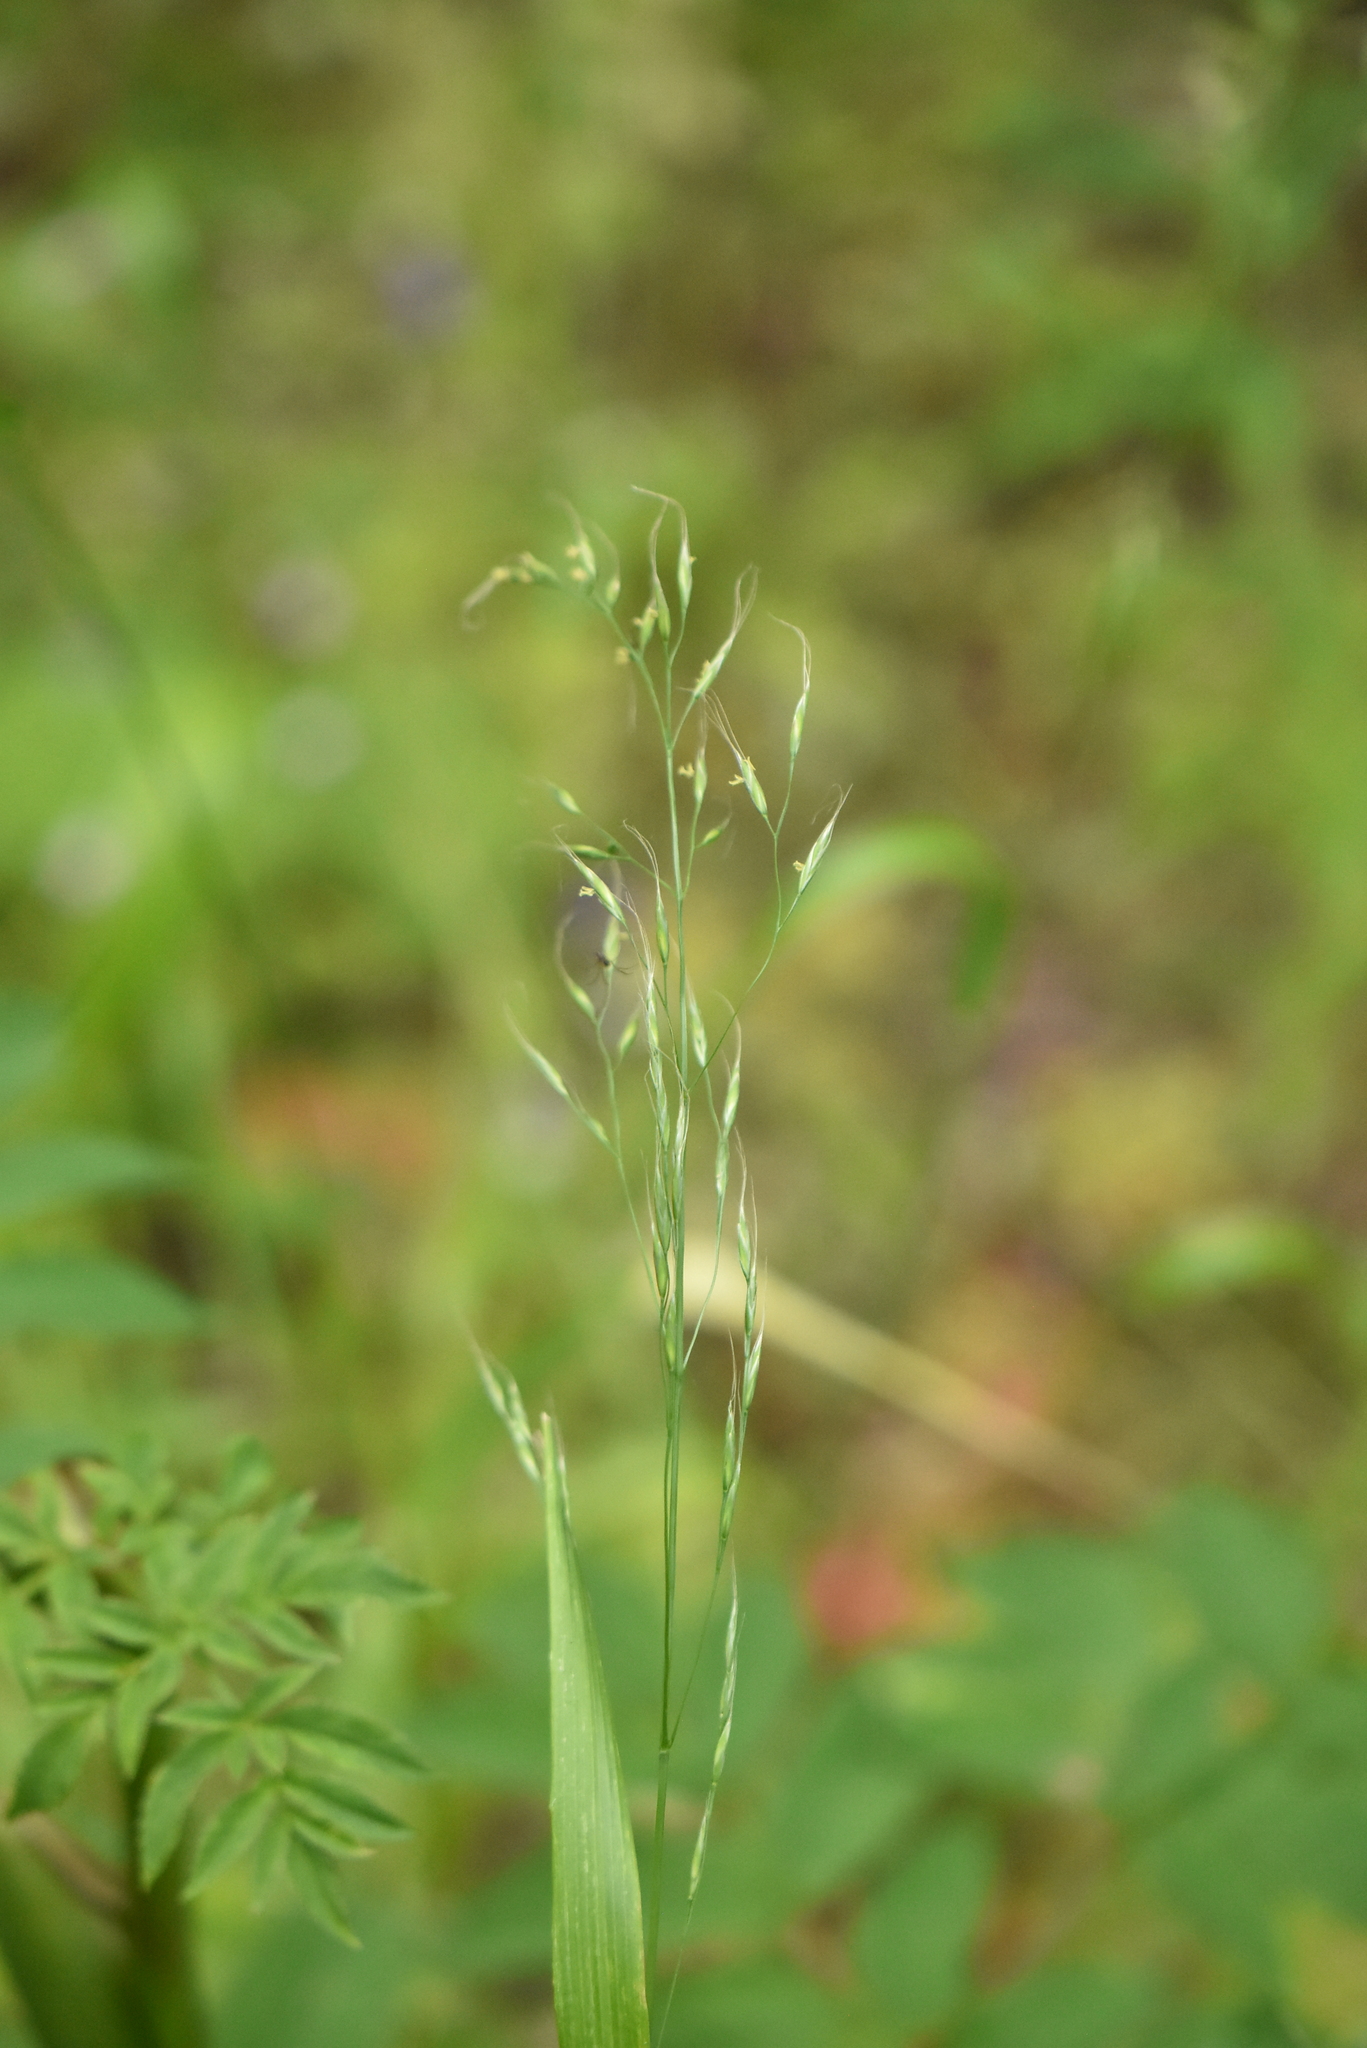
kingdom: Plantae
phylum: Tracheophyta
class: Liliopsida
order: Poales
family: Poaceae
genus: Lolium
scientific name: Lolium giganteum
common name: Giant fescue
